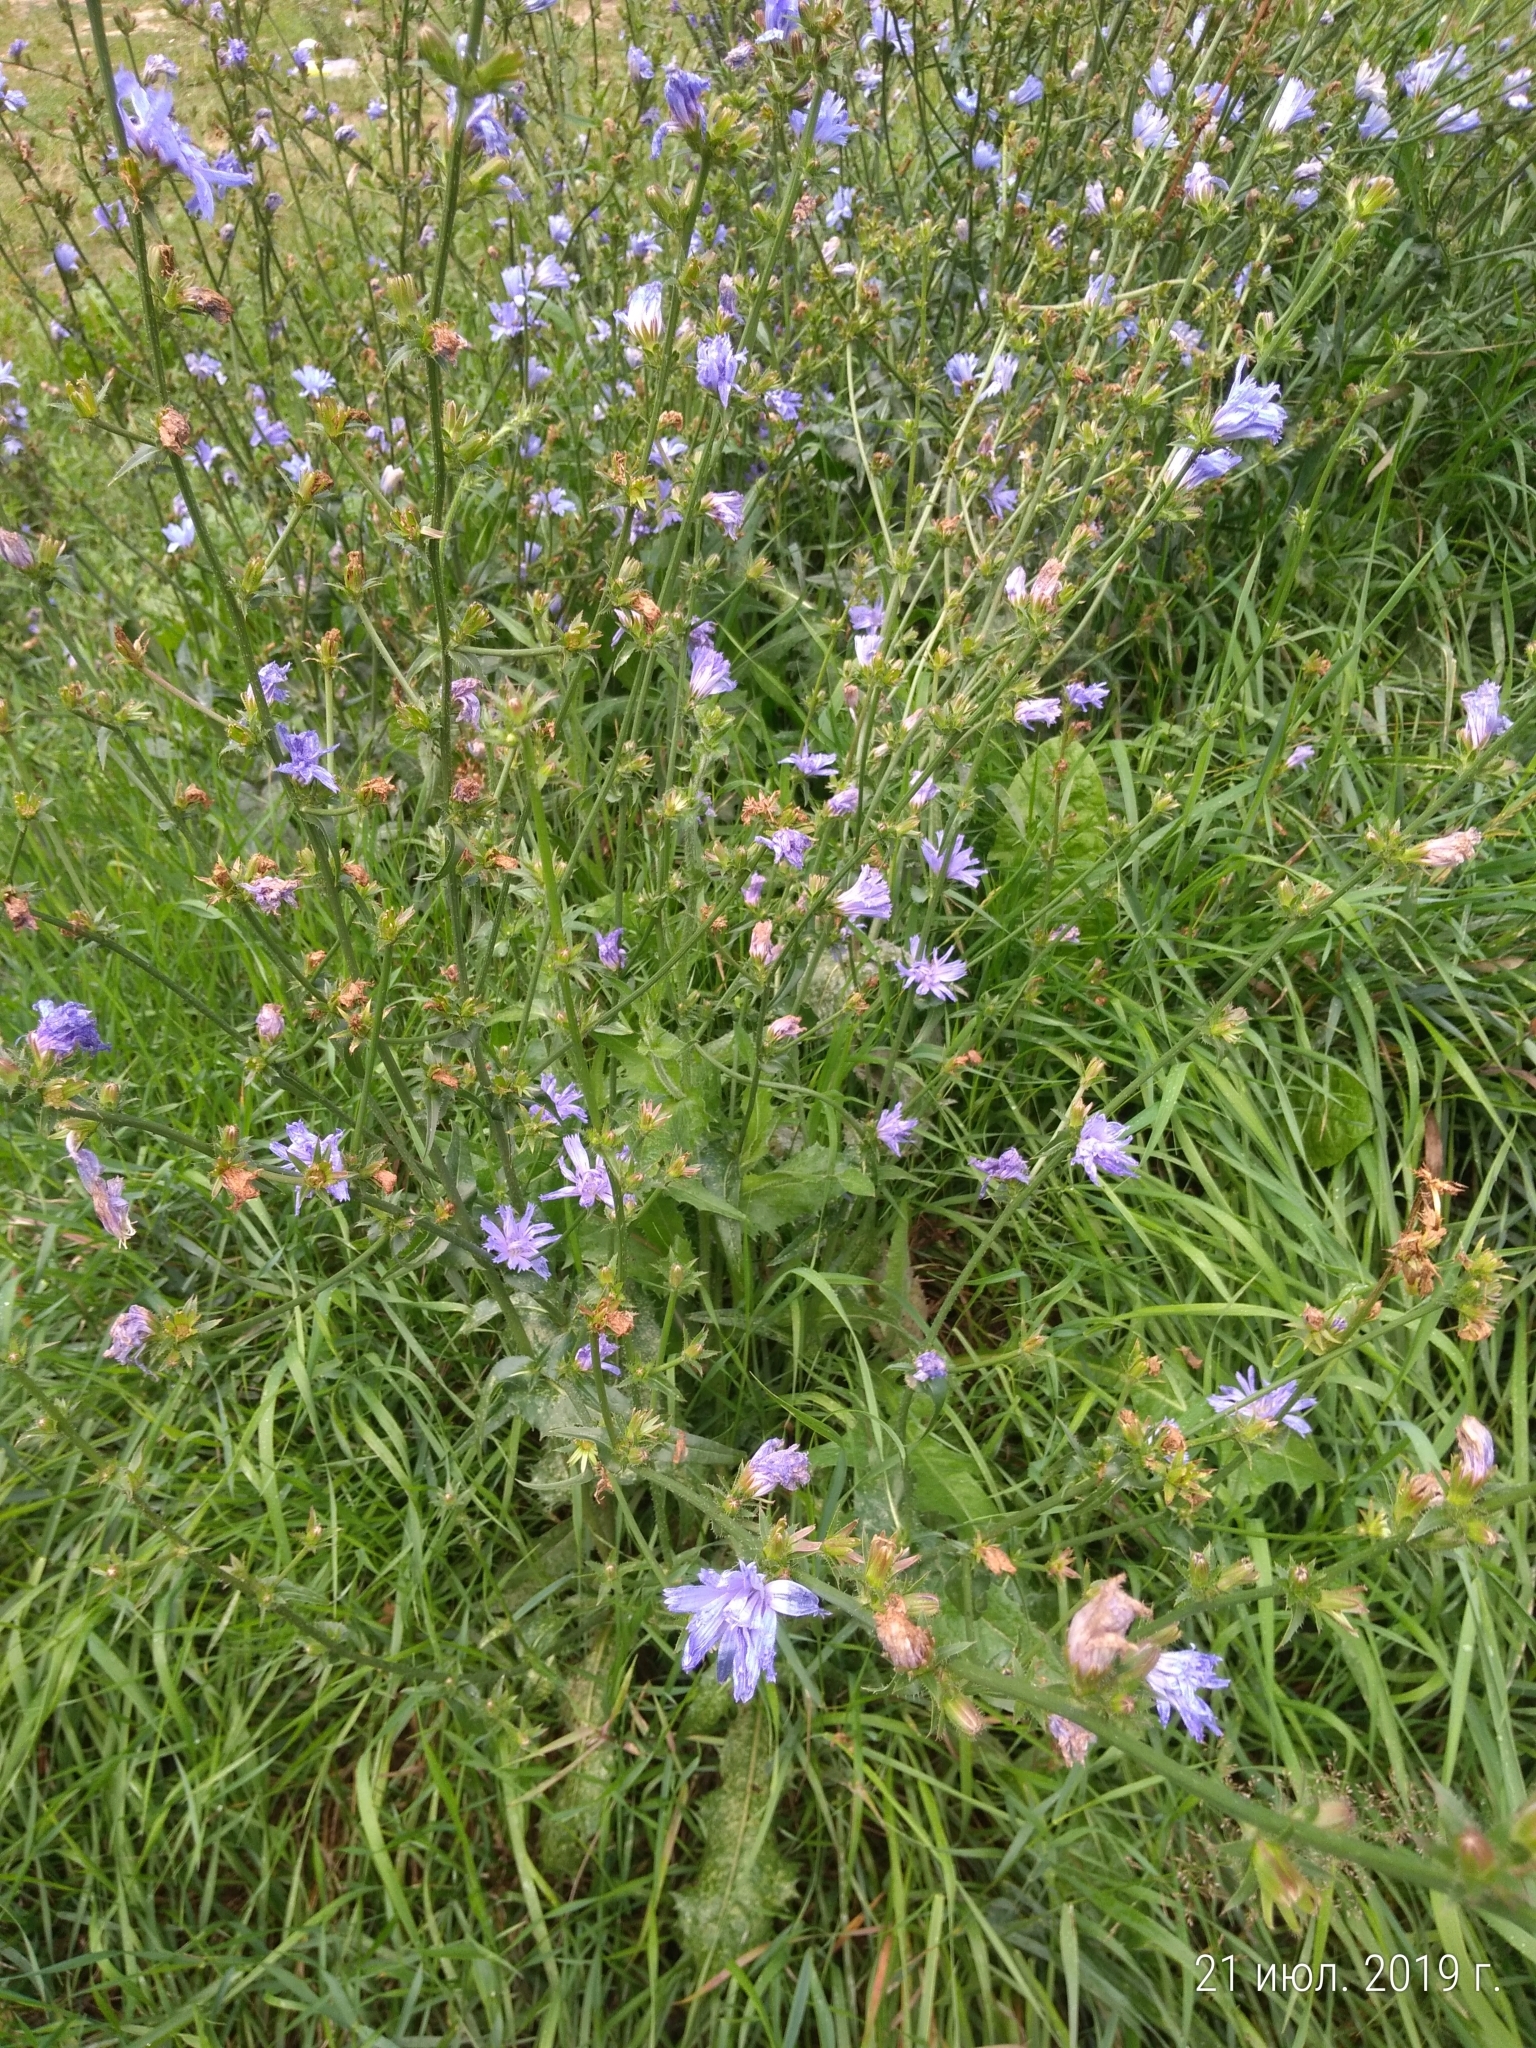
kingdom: Plantae
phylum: Tracheophyta
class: Magnoliopsida
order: Asterales
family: Asteraceae
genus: Cichorium
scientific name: Cichorium intybus
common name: Chicory
